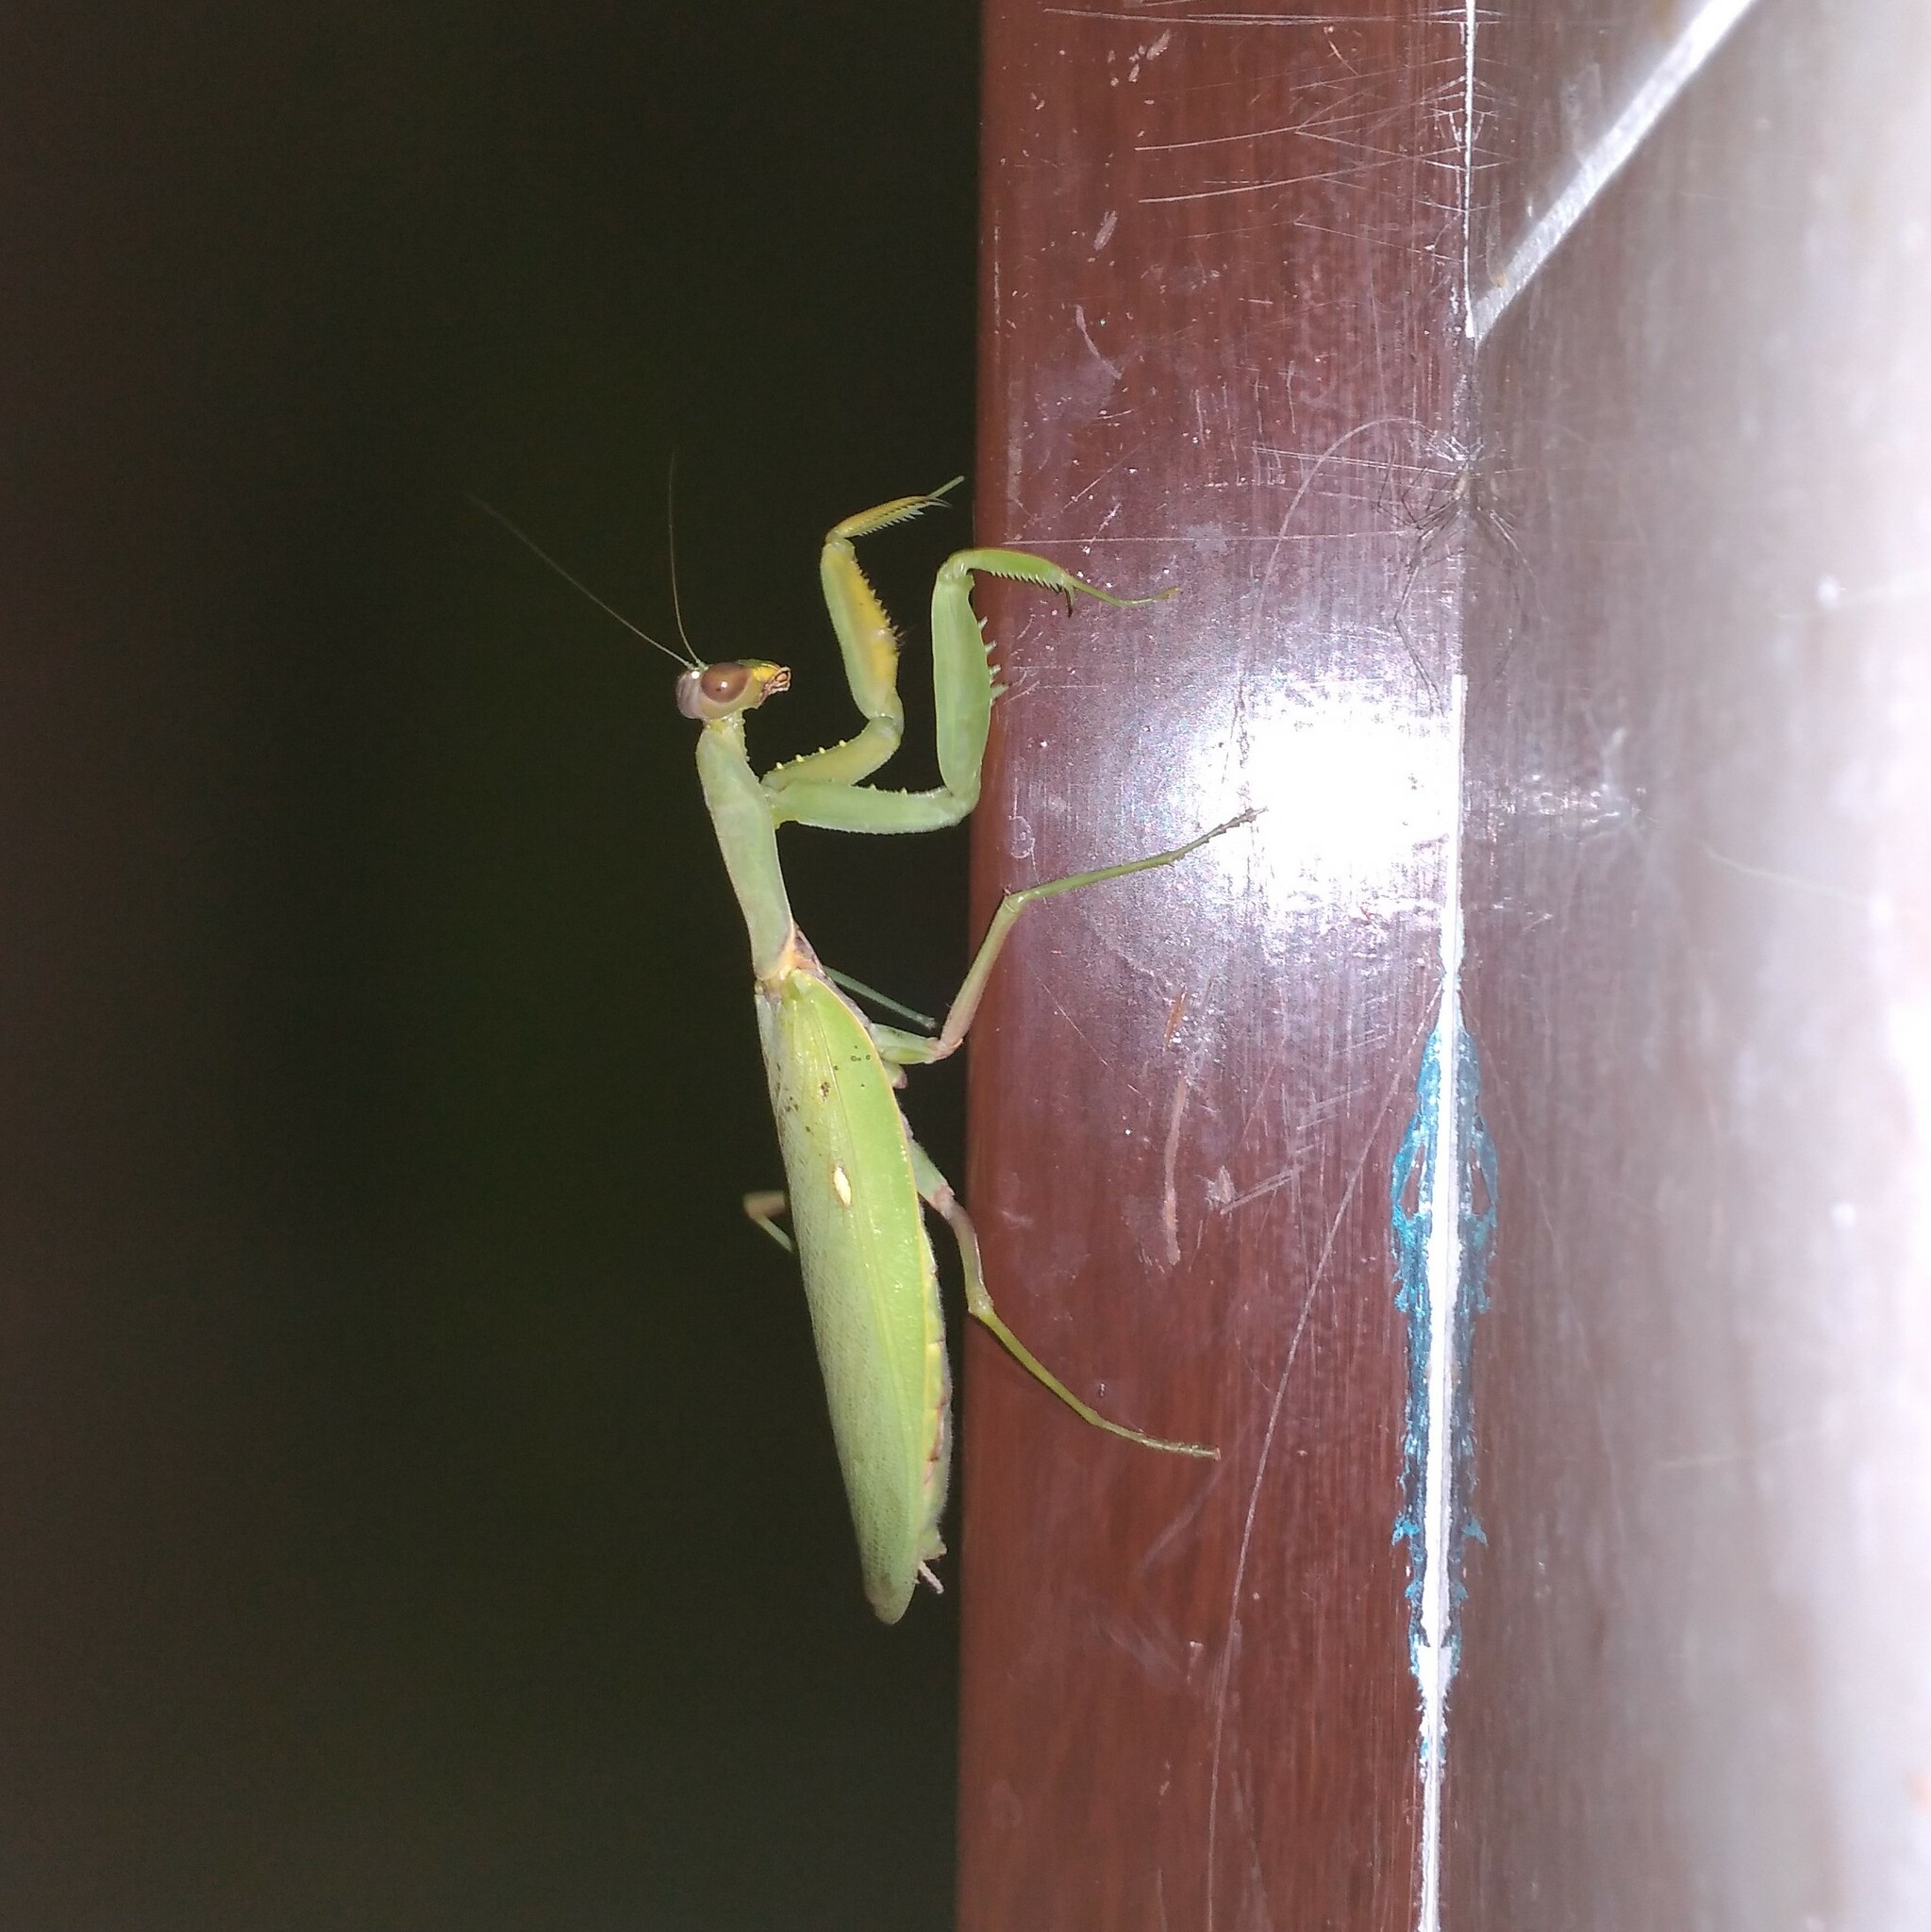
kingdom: Animalia
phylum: Arthropoda
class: Insecta
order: Mantodea
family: Mantidae
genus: Hierodula
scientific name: Hierodula transcaucasica
